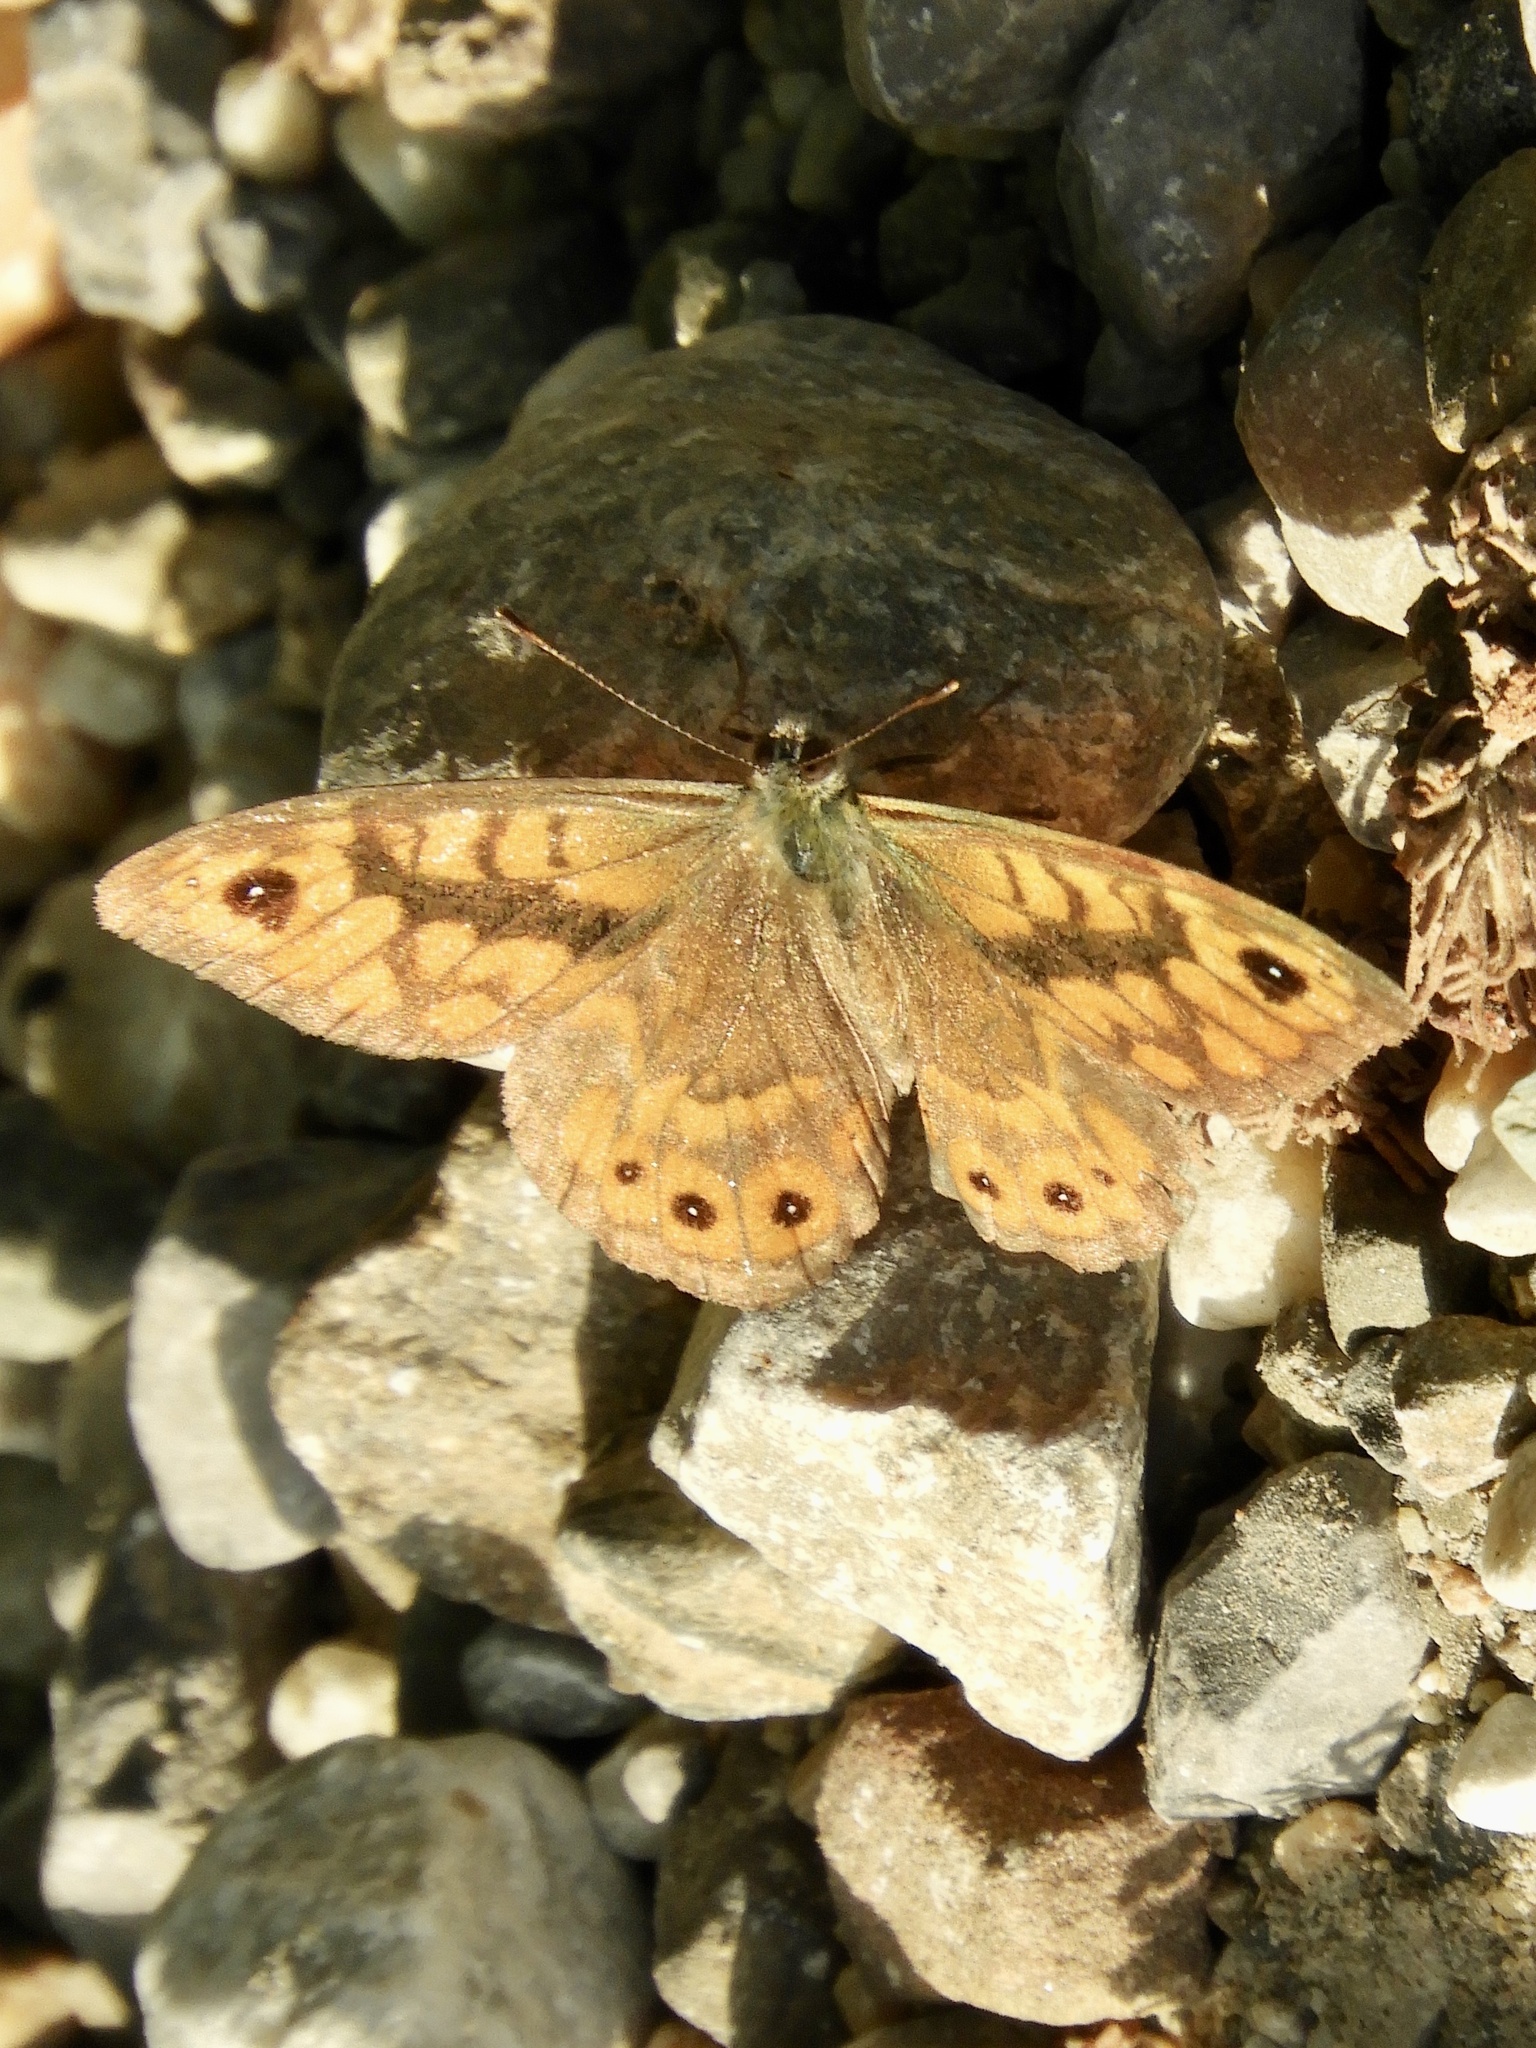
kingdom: Animalia
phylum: Arthropoda
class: Insecta
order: Lepidoptera
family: Nymphalidae
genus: Pararge
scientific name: Pararge Lasiommata megera
